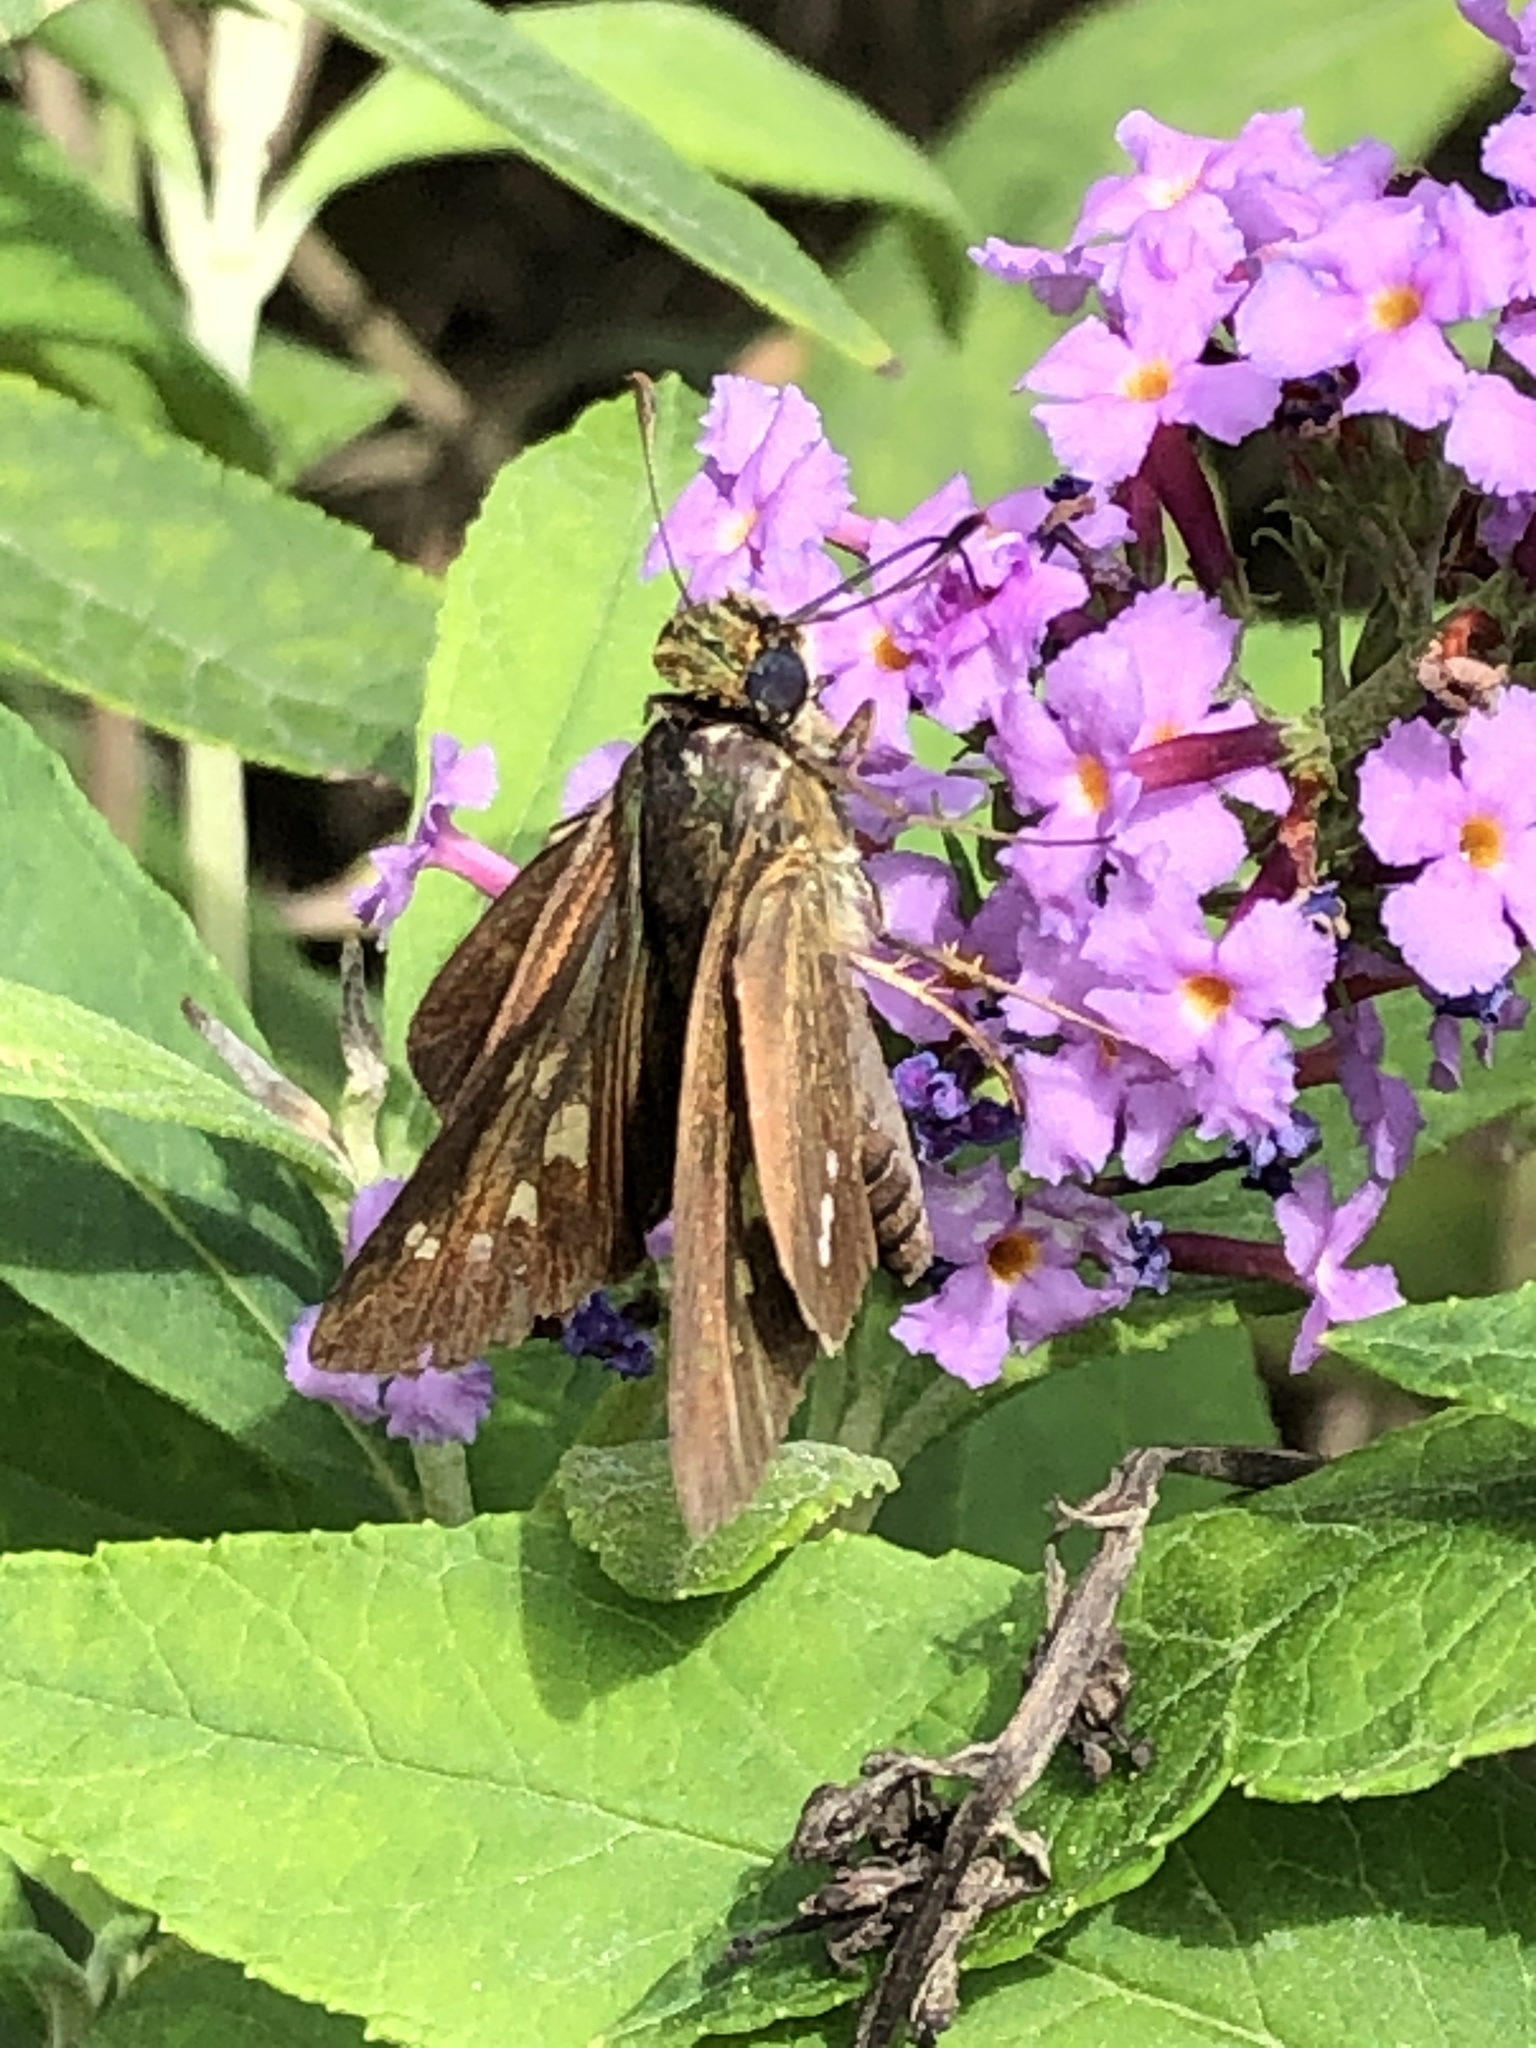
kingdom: Animalia
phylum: Arthropoda
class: Insecta
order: Lepidoptera
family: Hesperiidae
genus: Parnara
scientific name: Parnara guttatus
